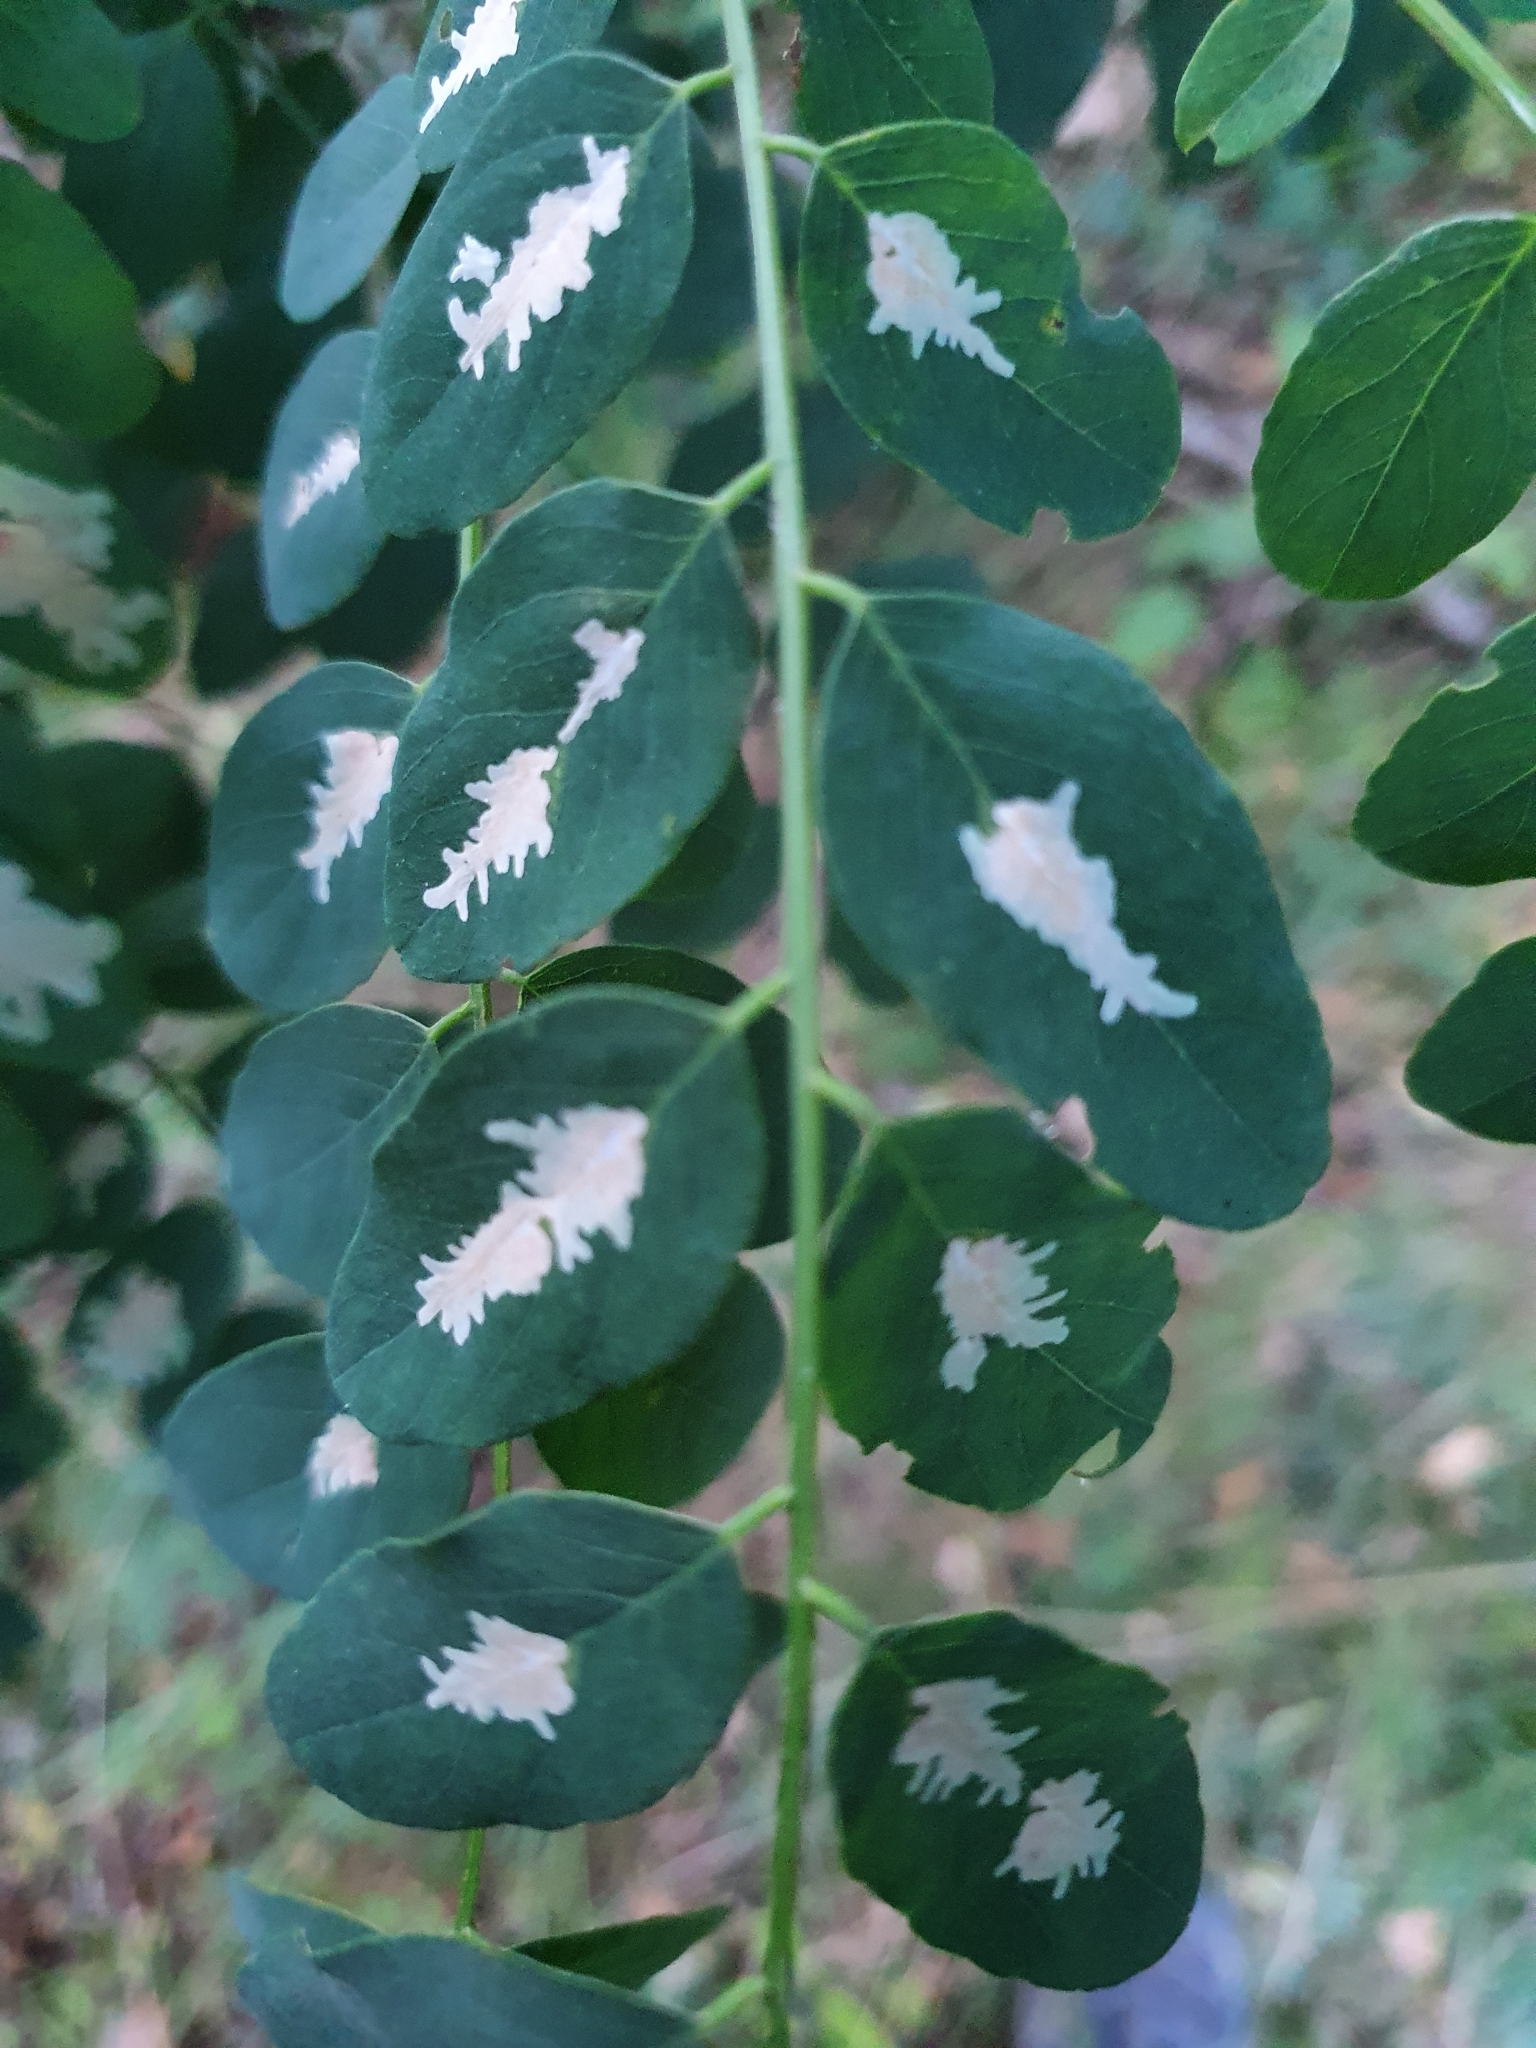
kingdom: Animalia
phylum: Arthropoda
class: Insecta
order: Lepidoptera
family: Gracillariidae
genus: Parectopa
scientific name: Parectopa robiniella
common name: Locust digitate leafminer
